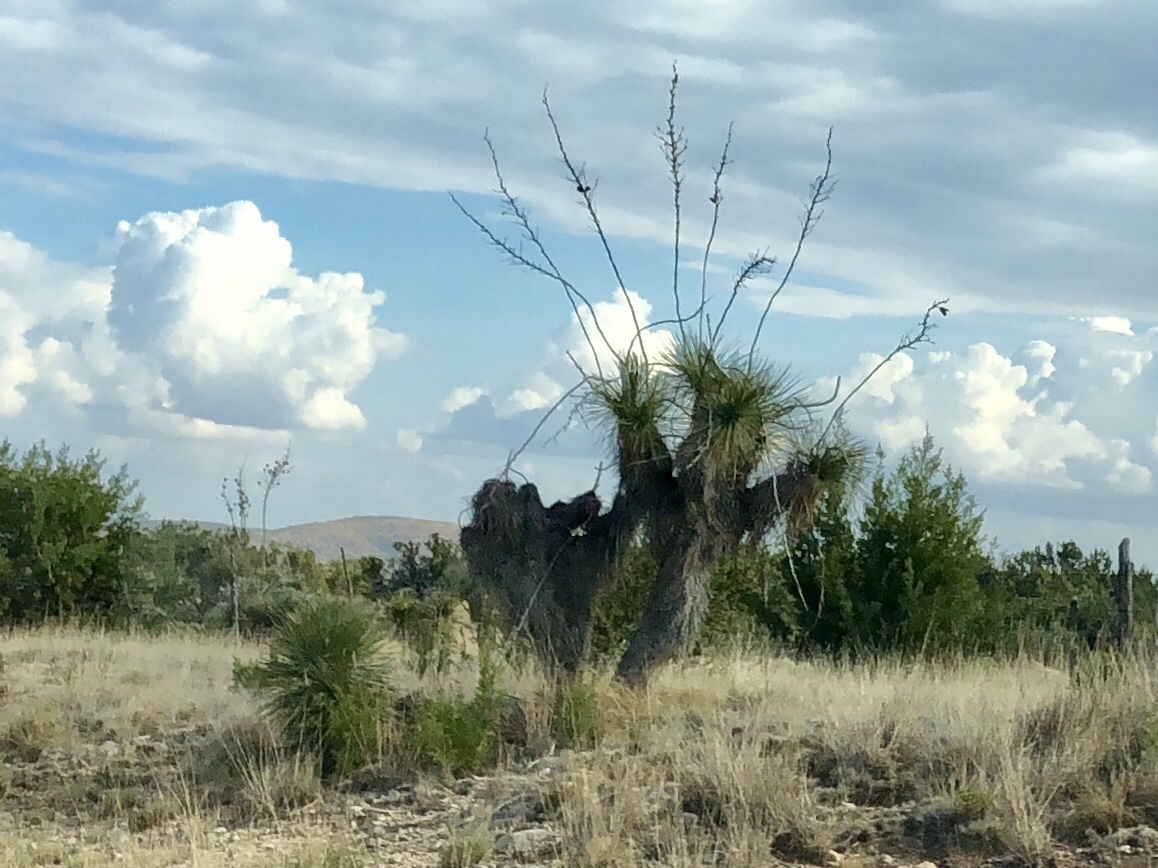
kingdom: Plantae
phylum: Tracheophyta
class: Liliopsida
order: Asparagales
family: Asparagaceae
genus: Yucca
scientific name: Yucca elata
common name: Palmella
